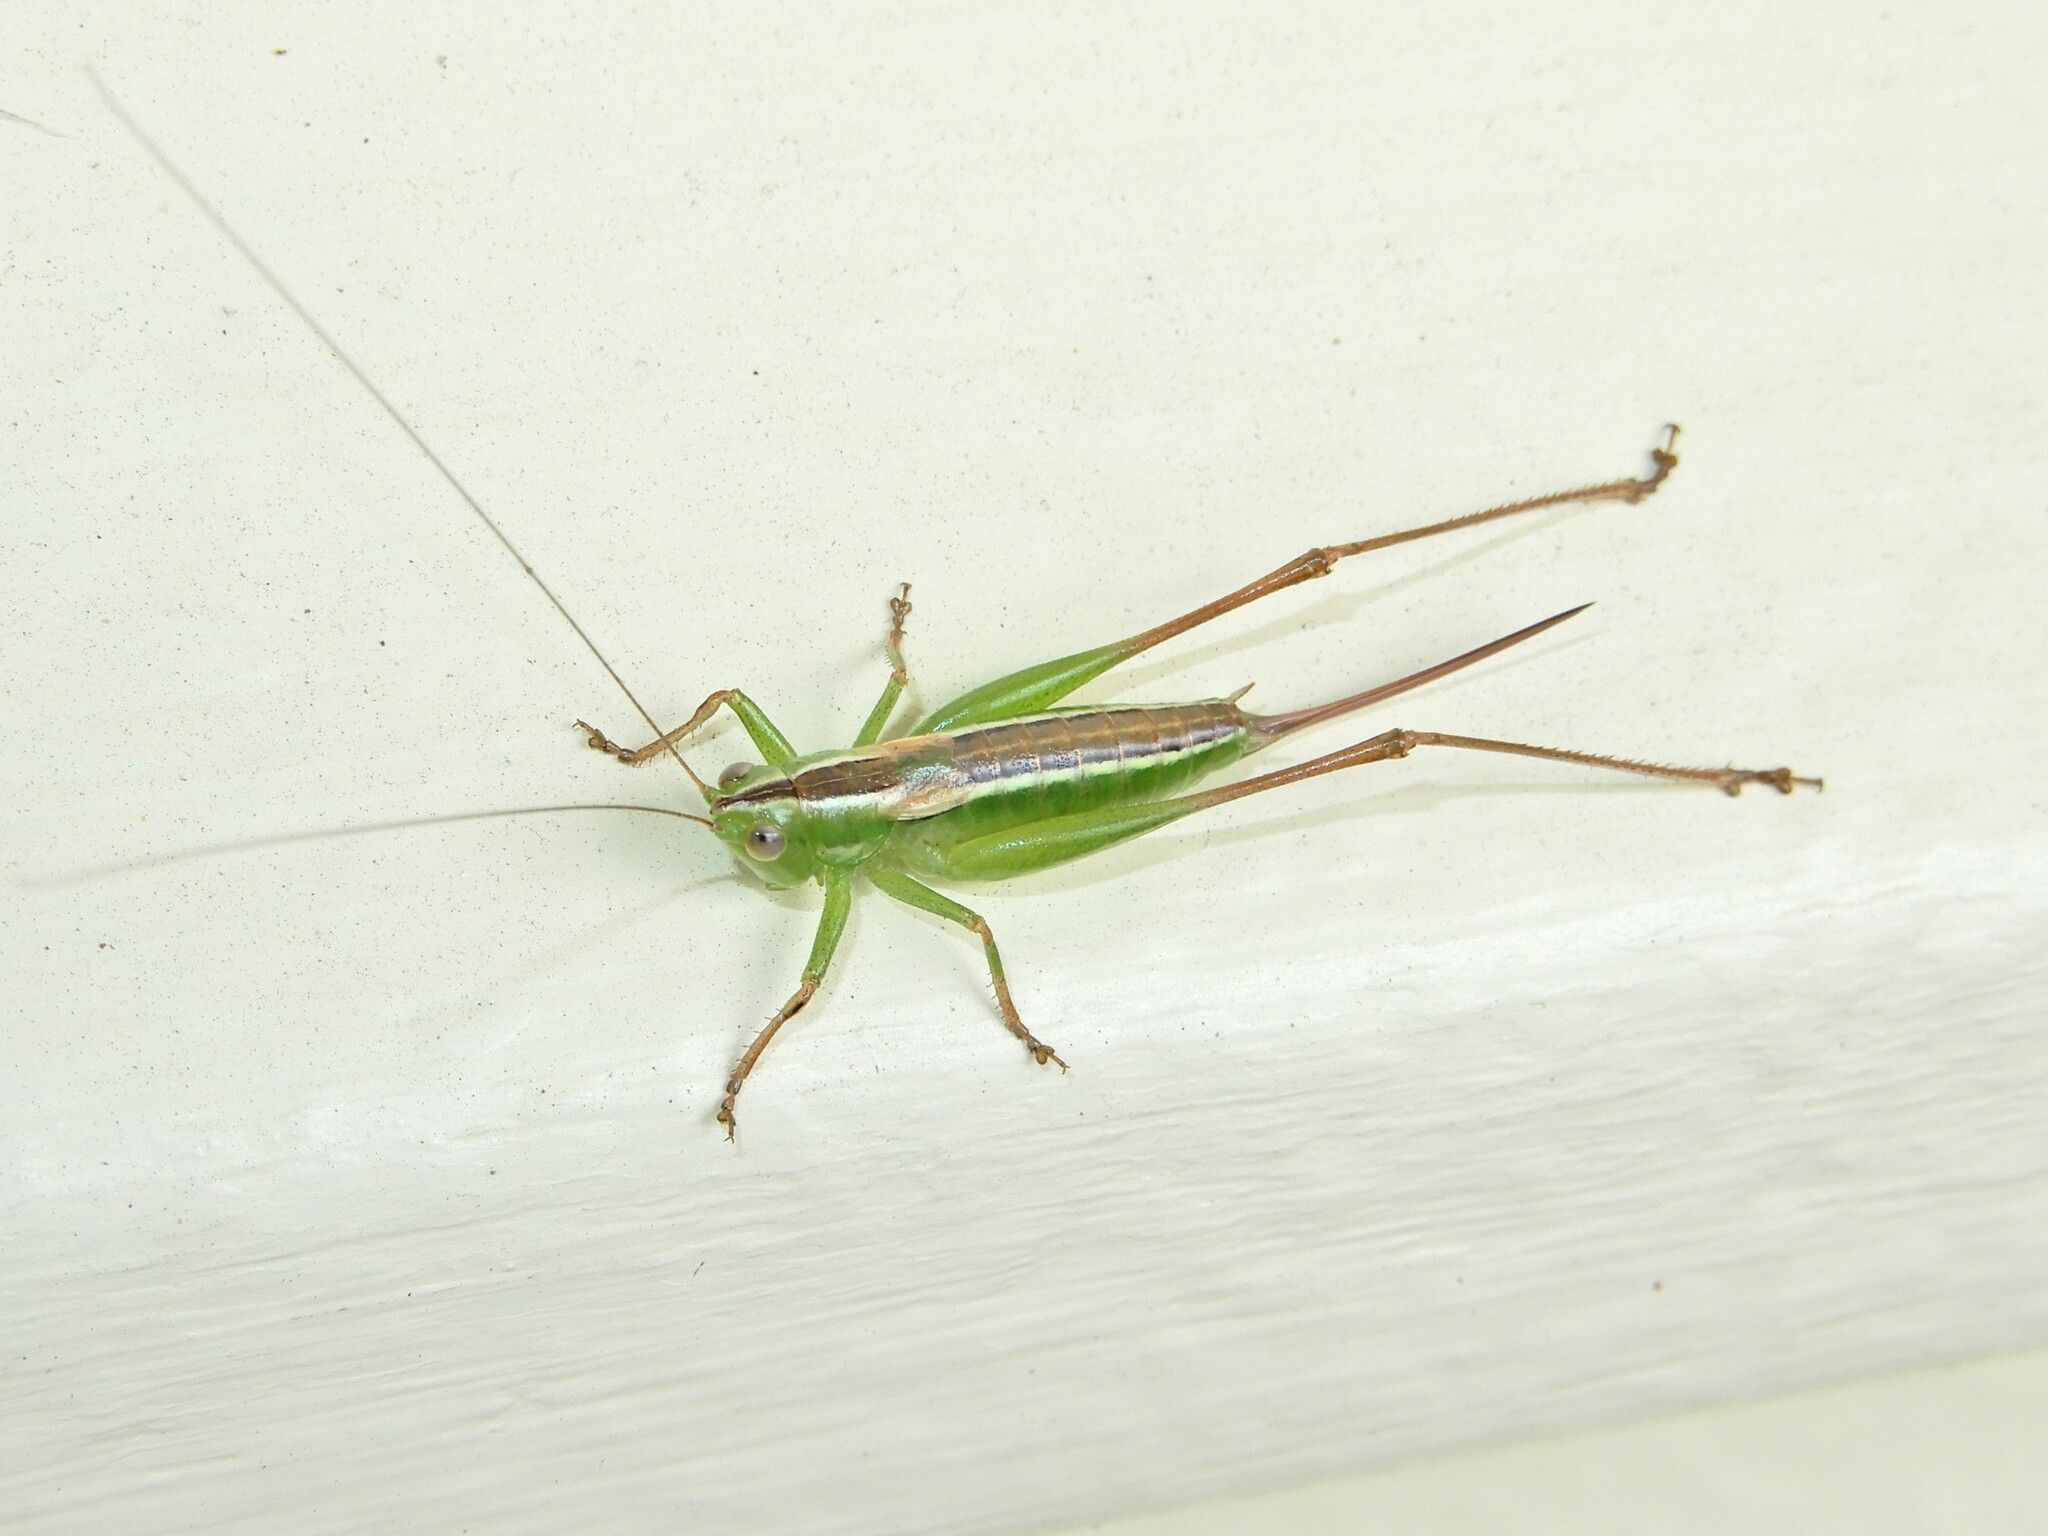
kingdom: Animalia
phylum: Arthropoda
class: Insecta
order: Orthoptera
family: Tettigoniidae
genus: Conocephalus
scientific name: Conocephalus bilineatus
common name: Small meadow katydid
